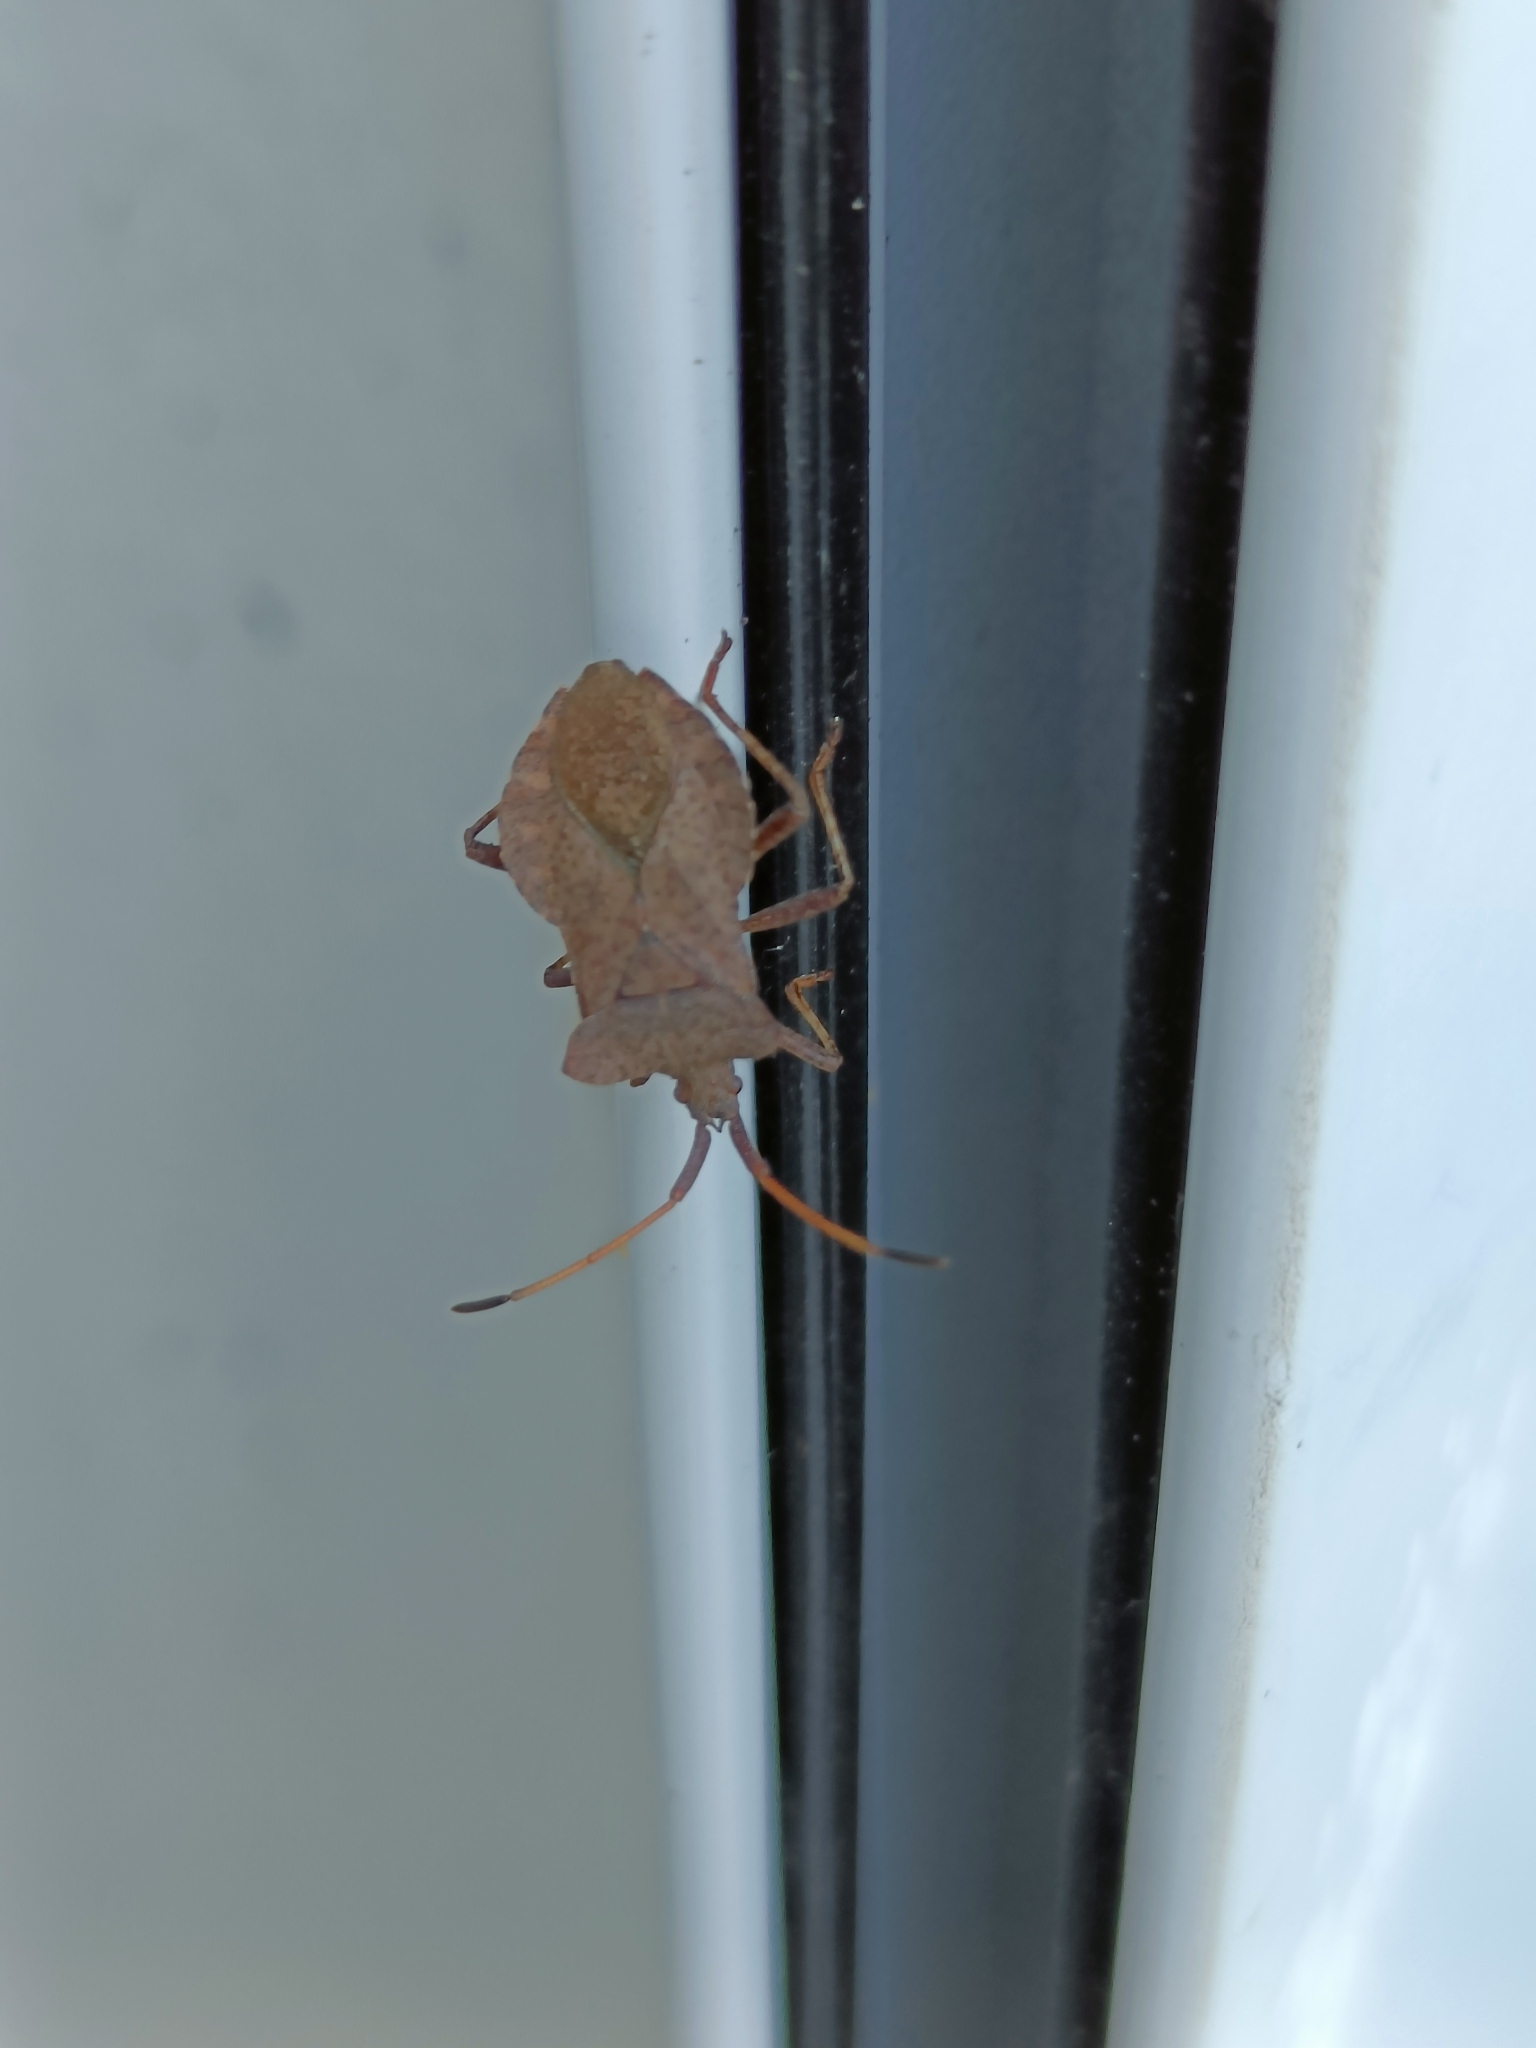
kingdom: Animalia
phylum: Arthropoda
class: Insecta
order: Hemiptera
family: Coreidae
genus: Coreus
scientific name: Coreus marginatus
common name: Dock bug
